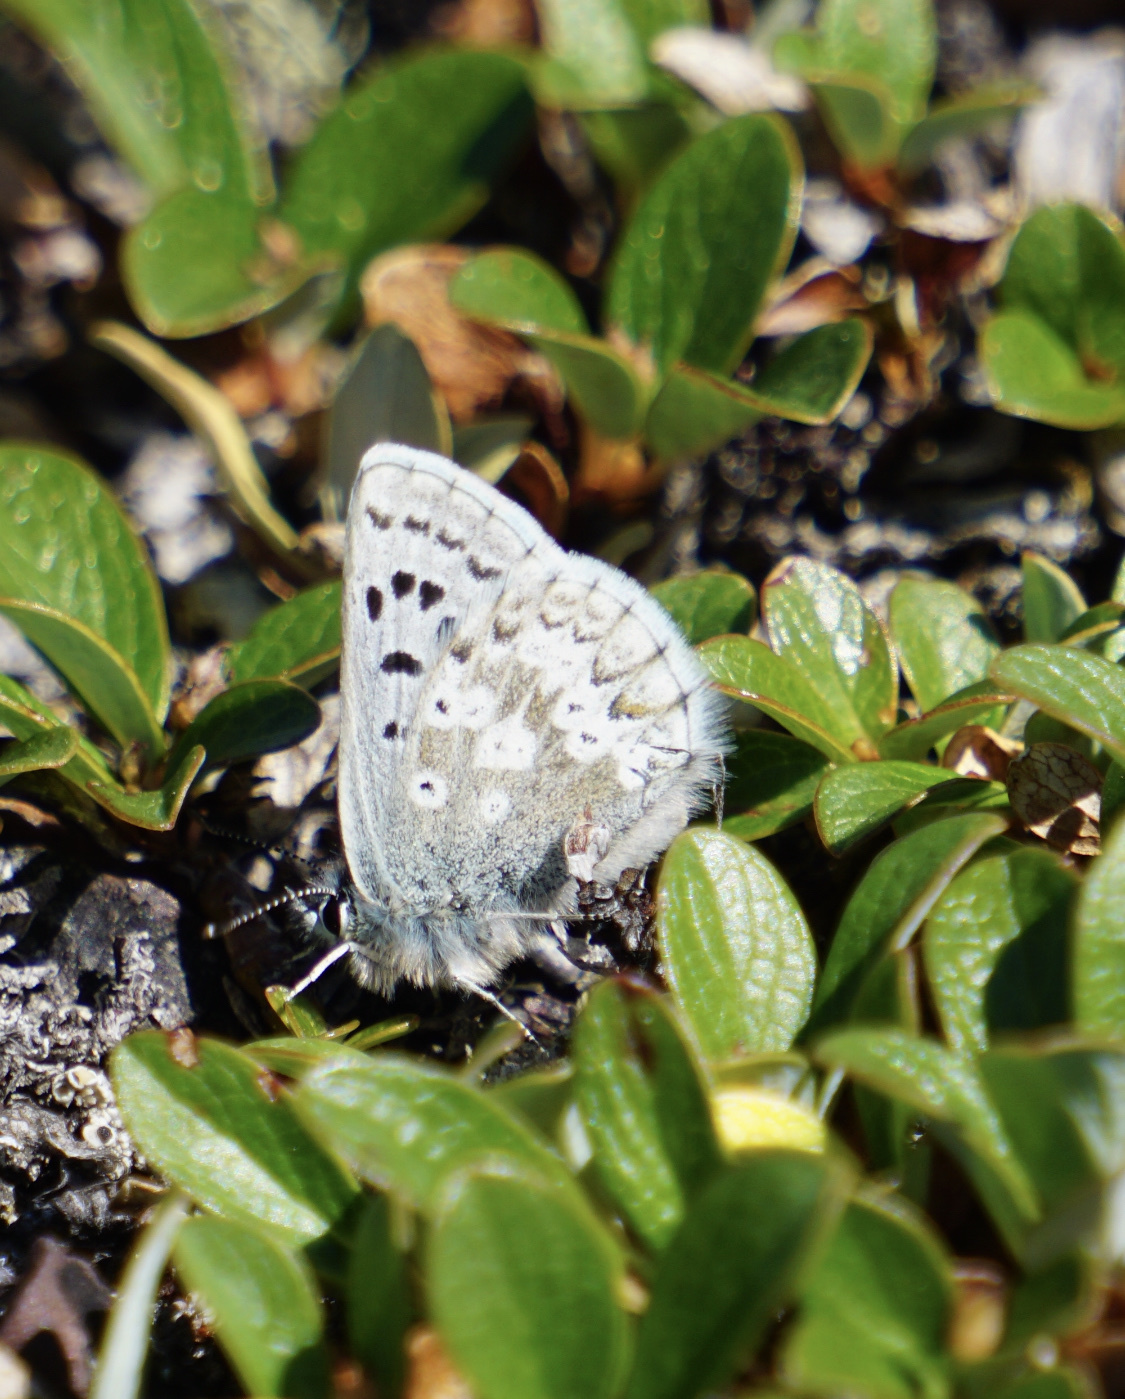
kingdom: Animalia
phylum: Arthropoda
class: Insecta
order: Lepidoptera
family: Lycaenidae
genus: Agriades
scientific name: Agriades glandon
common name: Glandon blue
